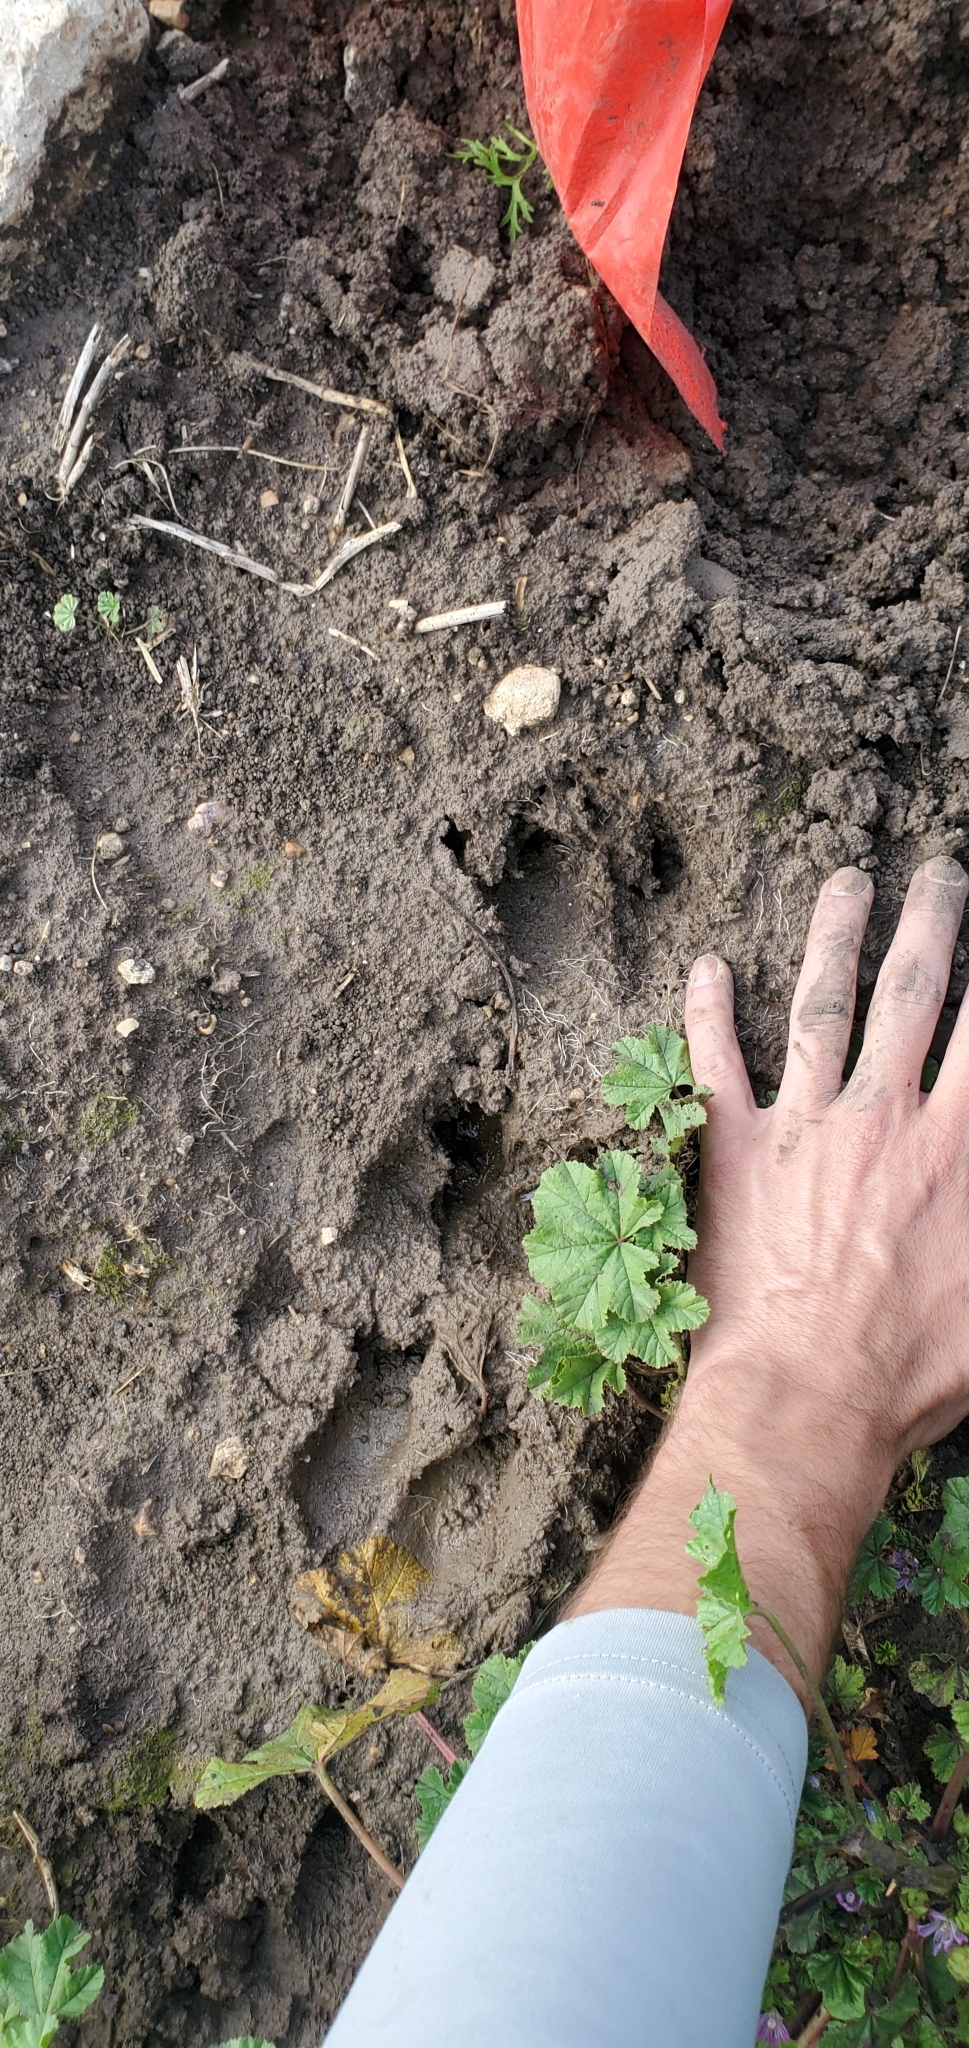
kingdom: Animalia
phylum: Chordata
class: Mammalia
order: Artiodactyla
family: Suidae
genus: Sus
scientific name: Sus scrofa
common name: Wild boar
